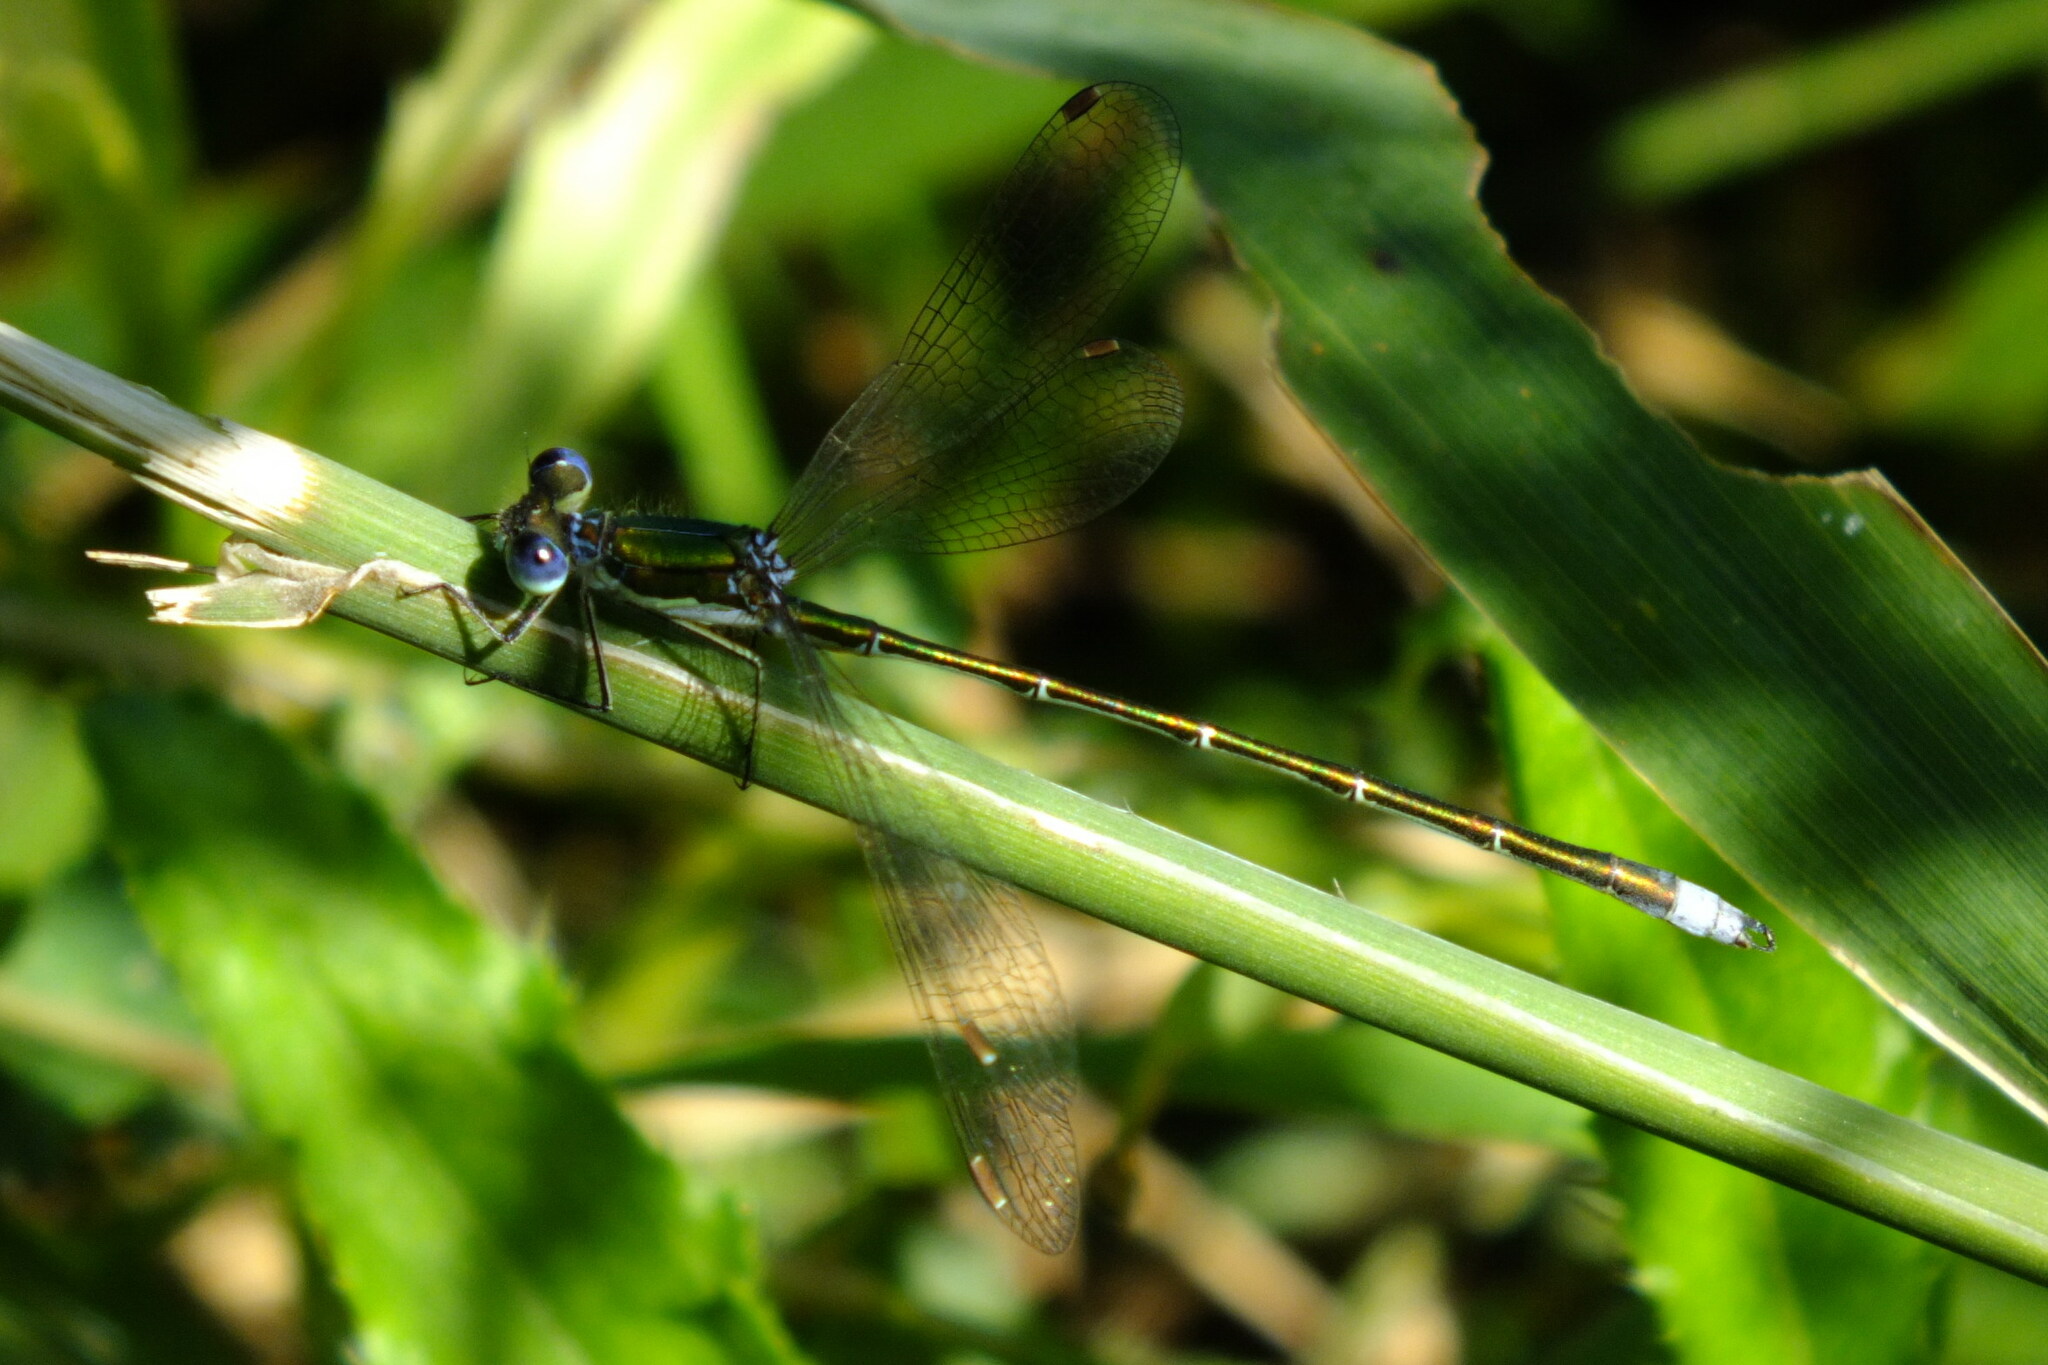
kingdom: Animalia
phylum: Arthropoda
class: Insecta
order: Odonata
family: Lestidae
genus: Lestes
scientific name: Lestes virens
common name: Small emerald spreadwing
